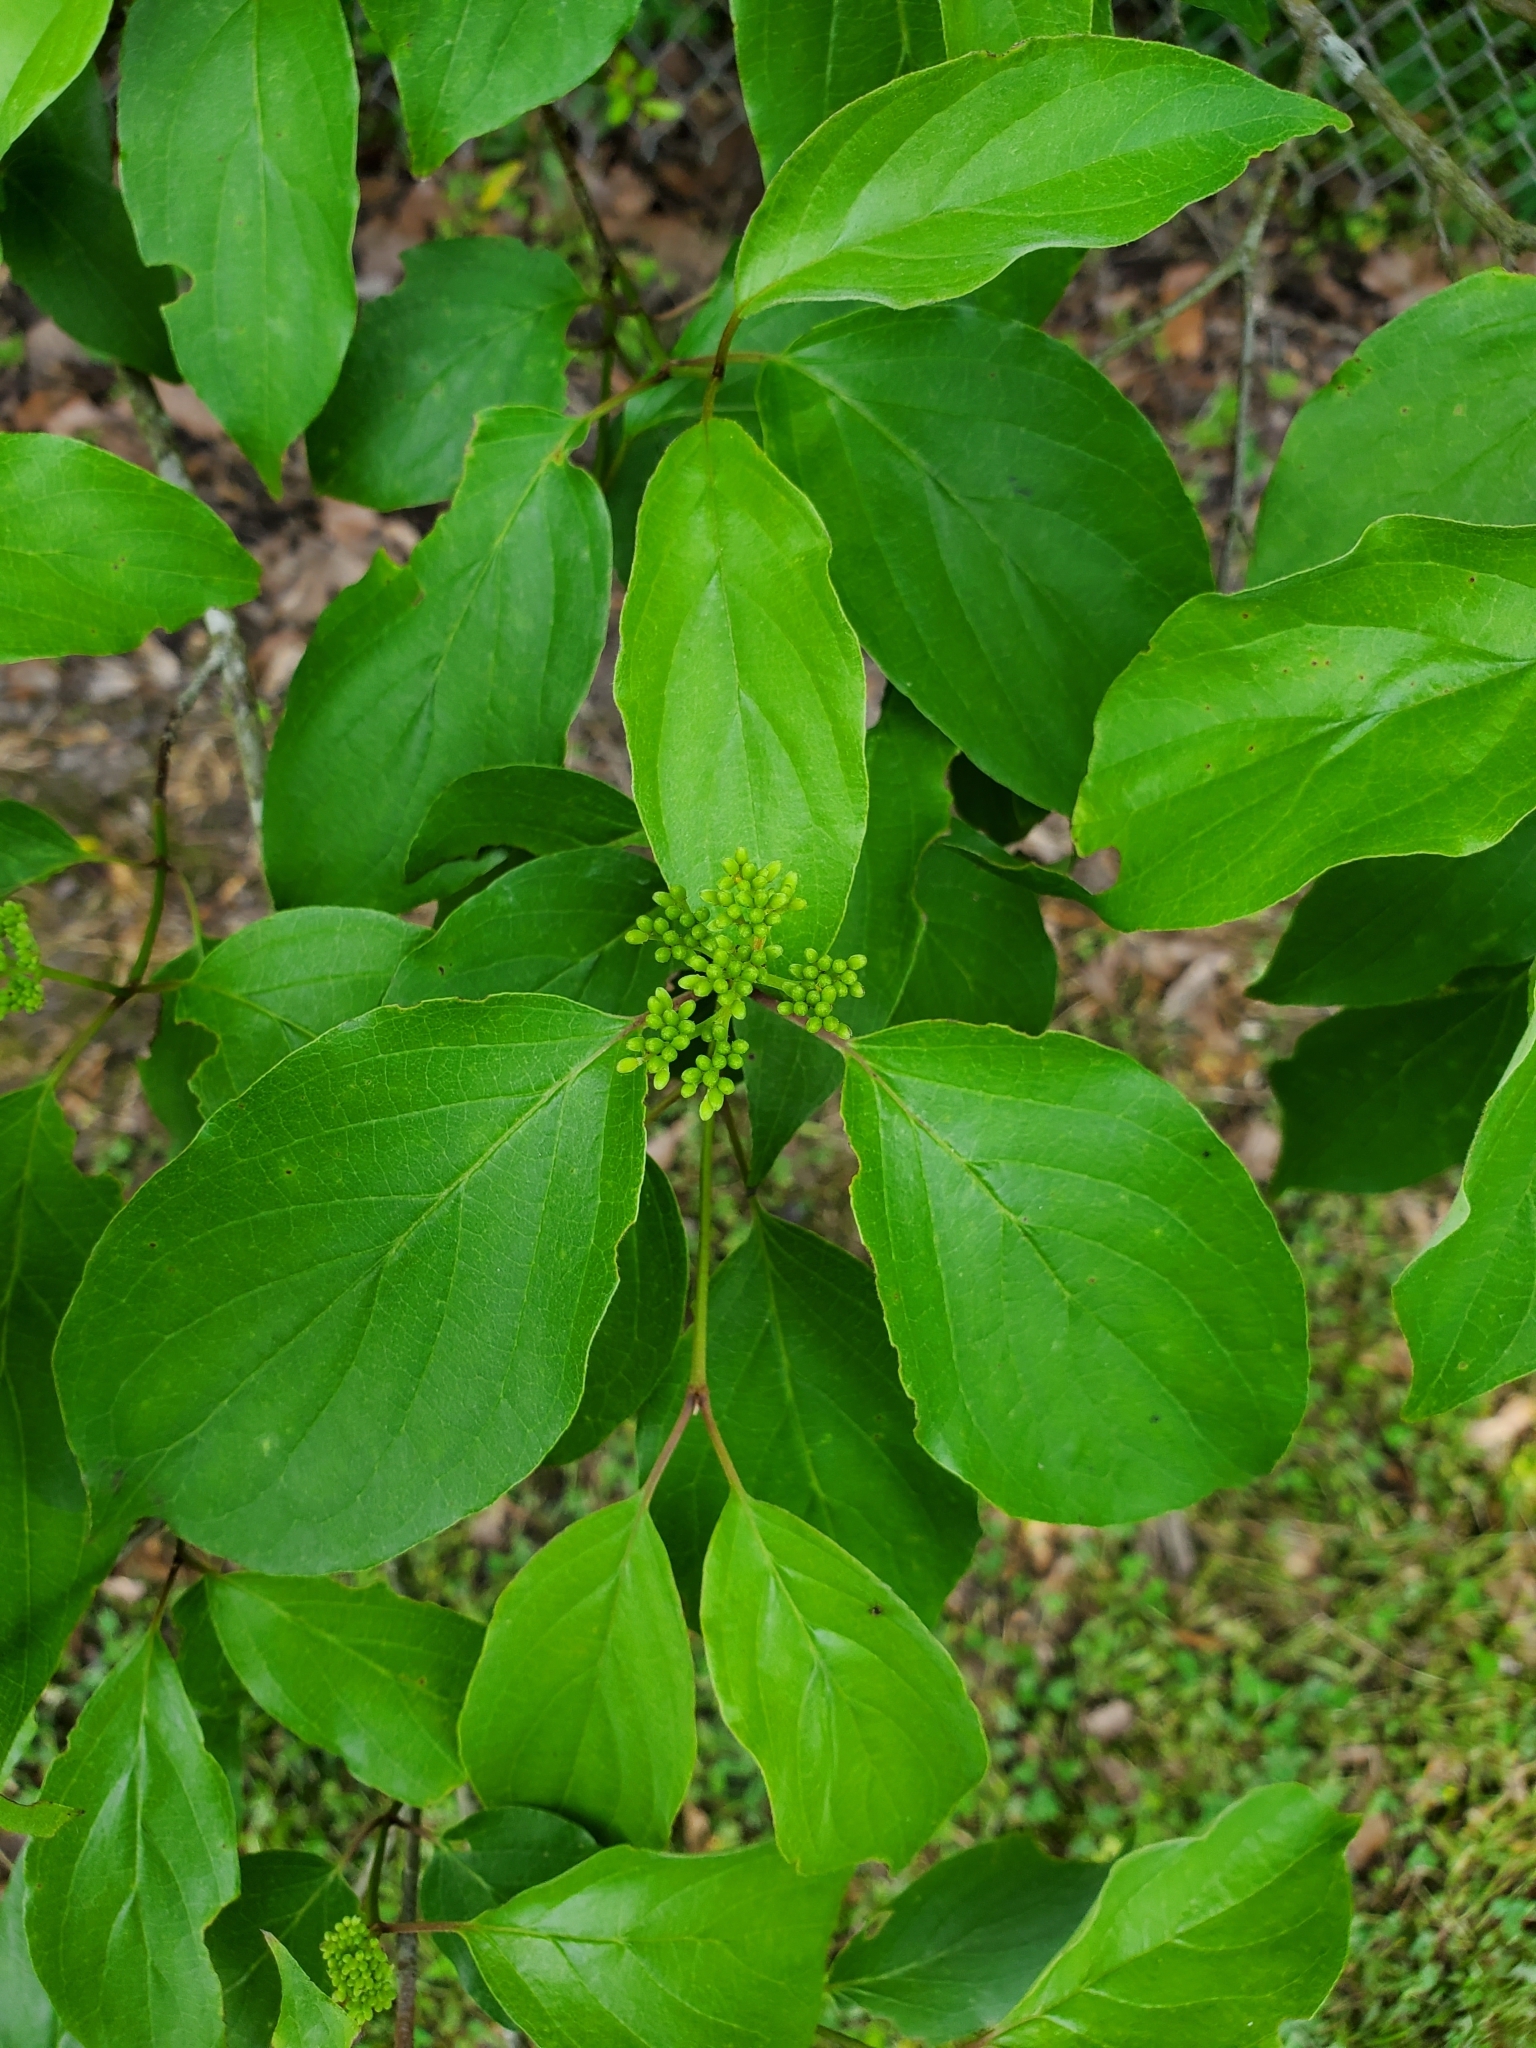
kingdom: Plantae
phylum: Tracheophyta
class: Magnoliopsida
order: Cornales
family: Cornaceae
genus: Cornus
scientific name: Cornus drummondii
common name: Rough-leaf dogwood
